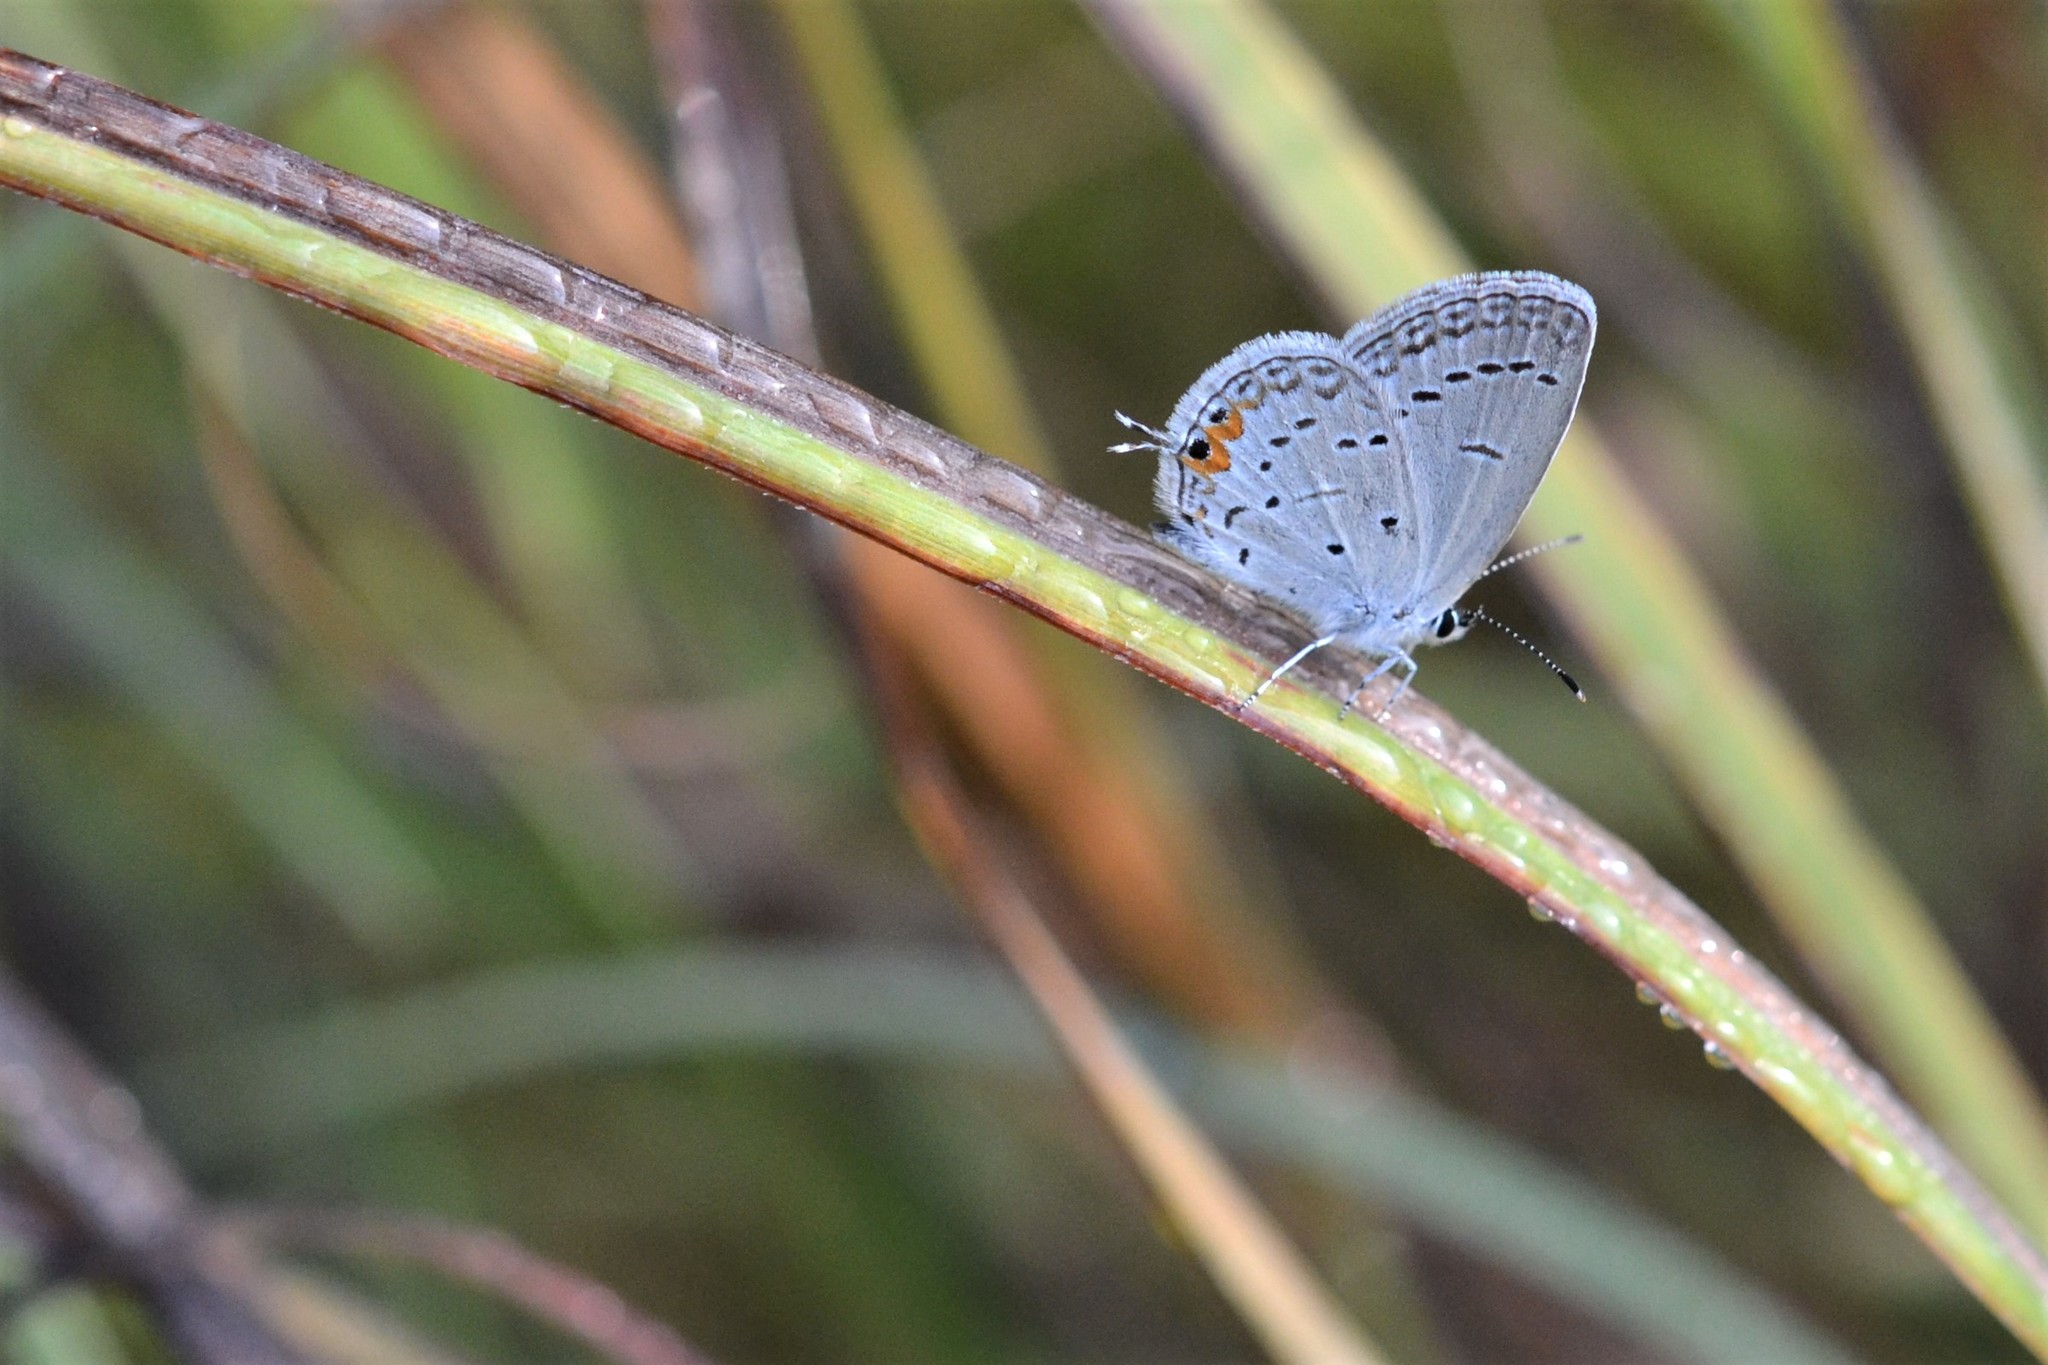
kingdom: Animalia
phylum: Arthropoda
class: Insecta
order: Lepidoptera
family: Lycaenidae
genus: Elkalyce
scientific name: Elkalyce comyntas
